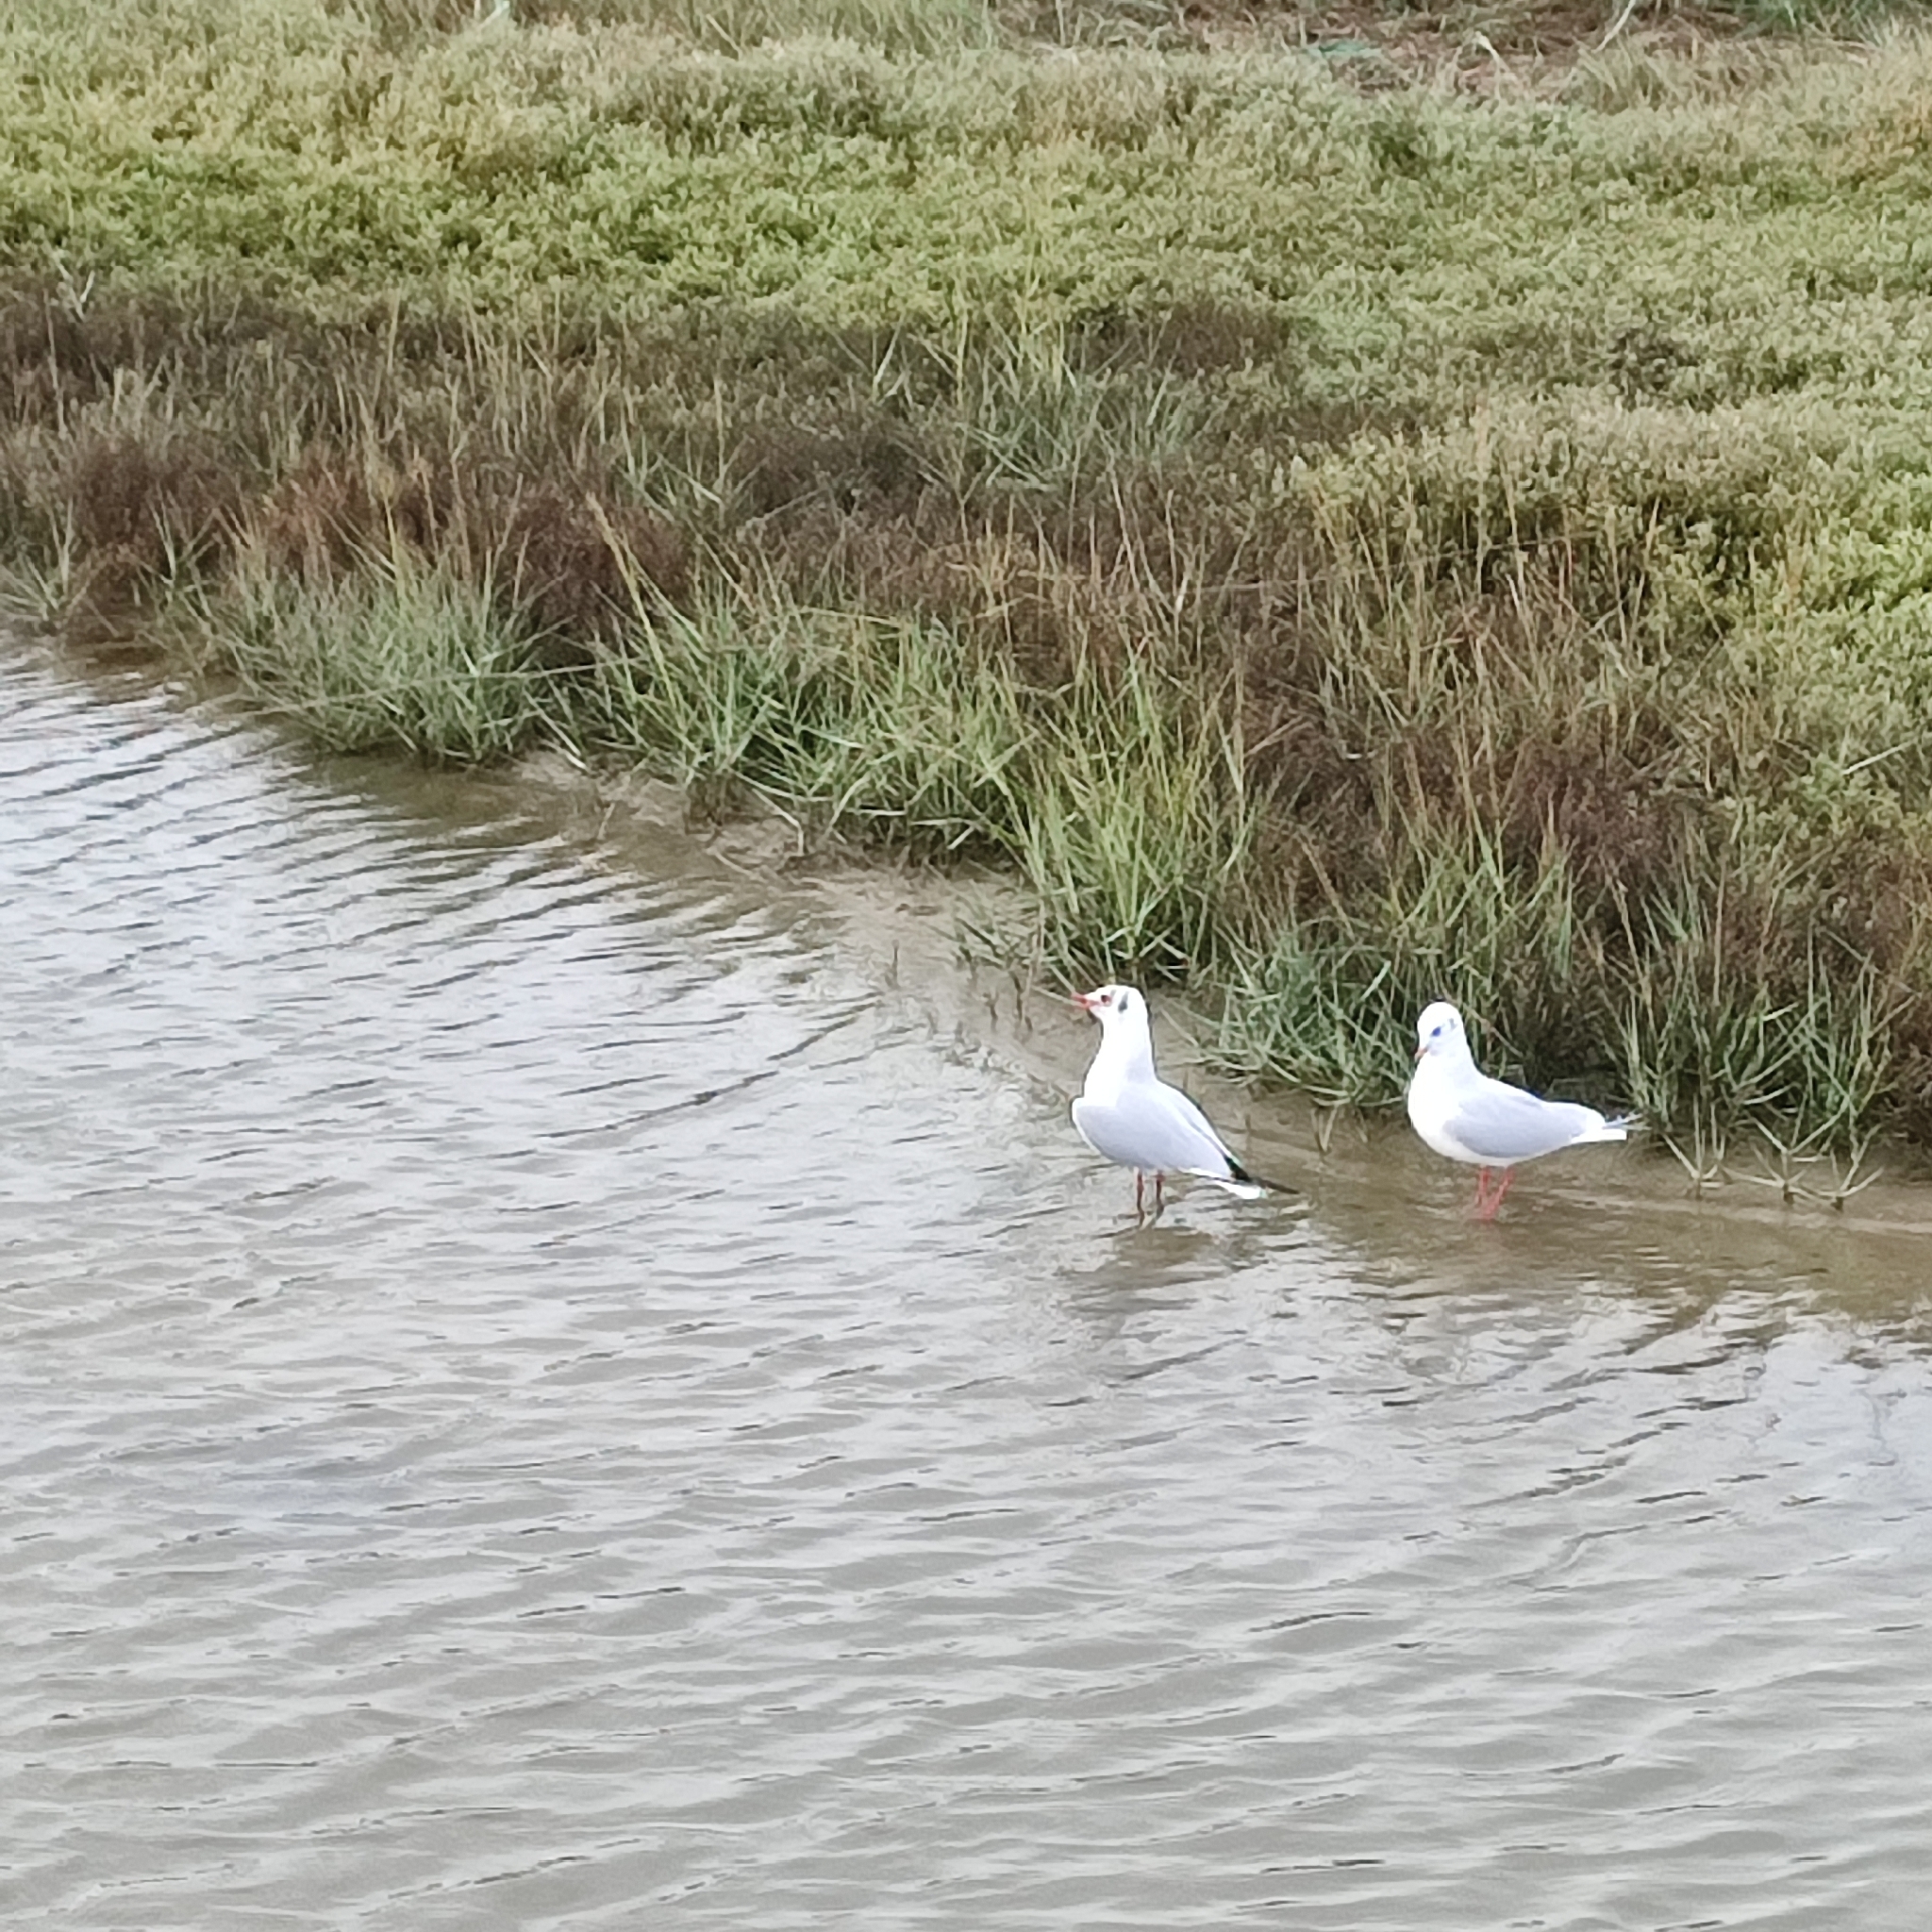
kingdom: Animalia
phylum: Chordata
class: Aves
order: Charadriiformes
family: Laridae
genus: Chroicocephalus
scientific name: Chroicocephalus ridibundus
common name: Black-headed gull
